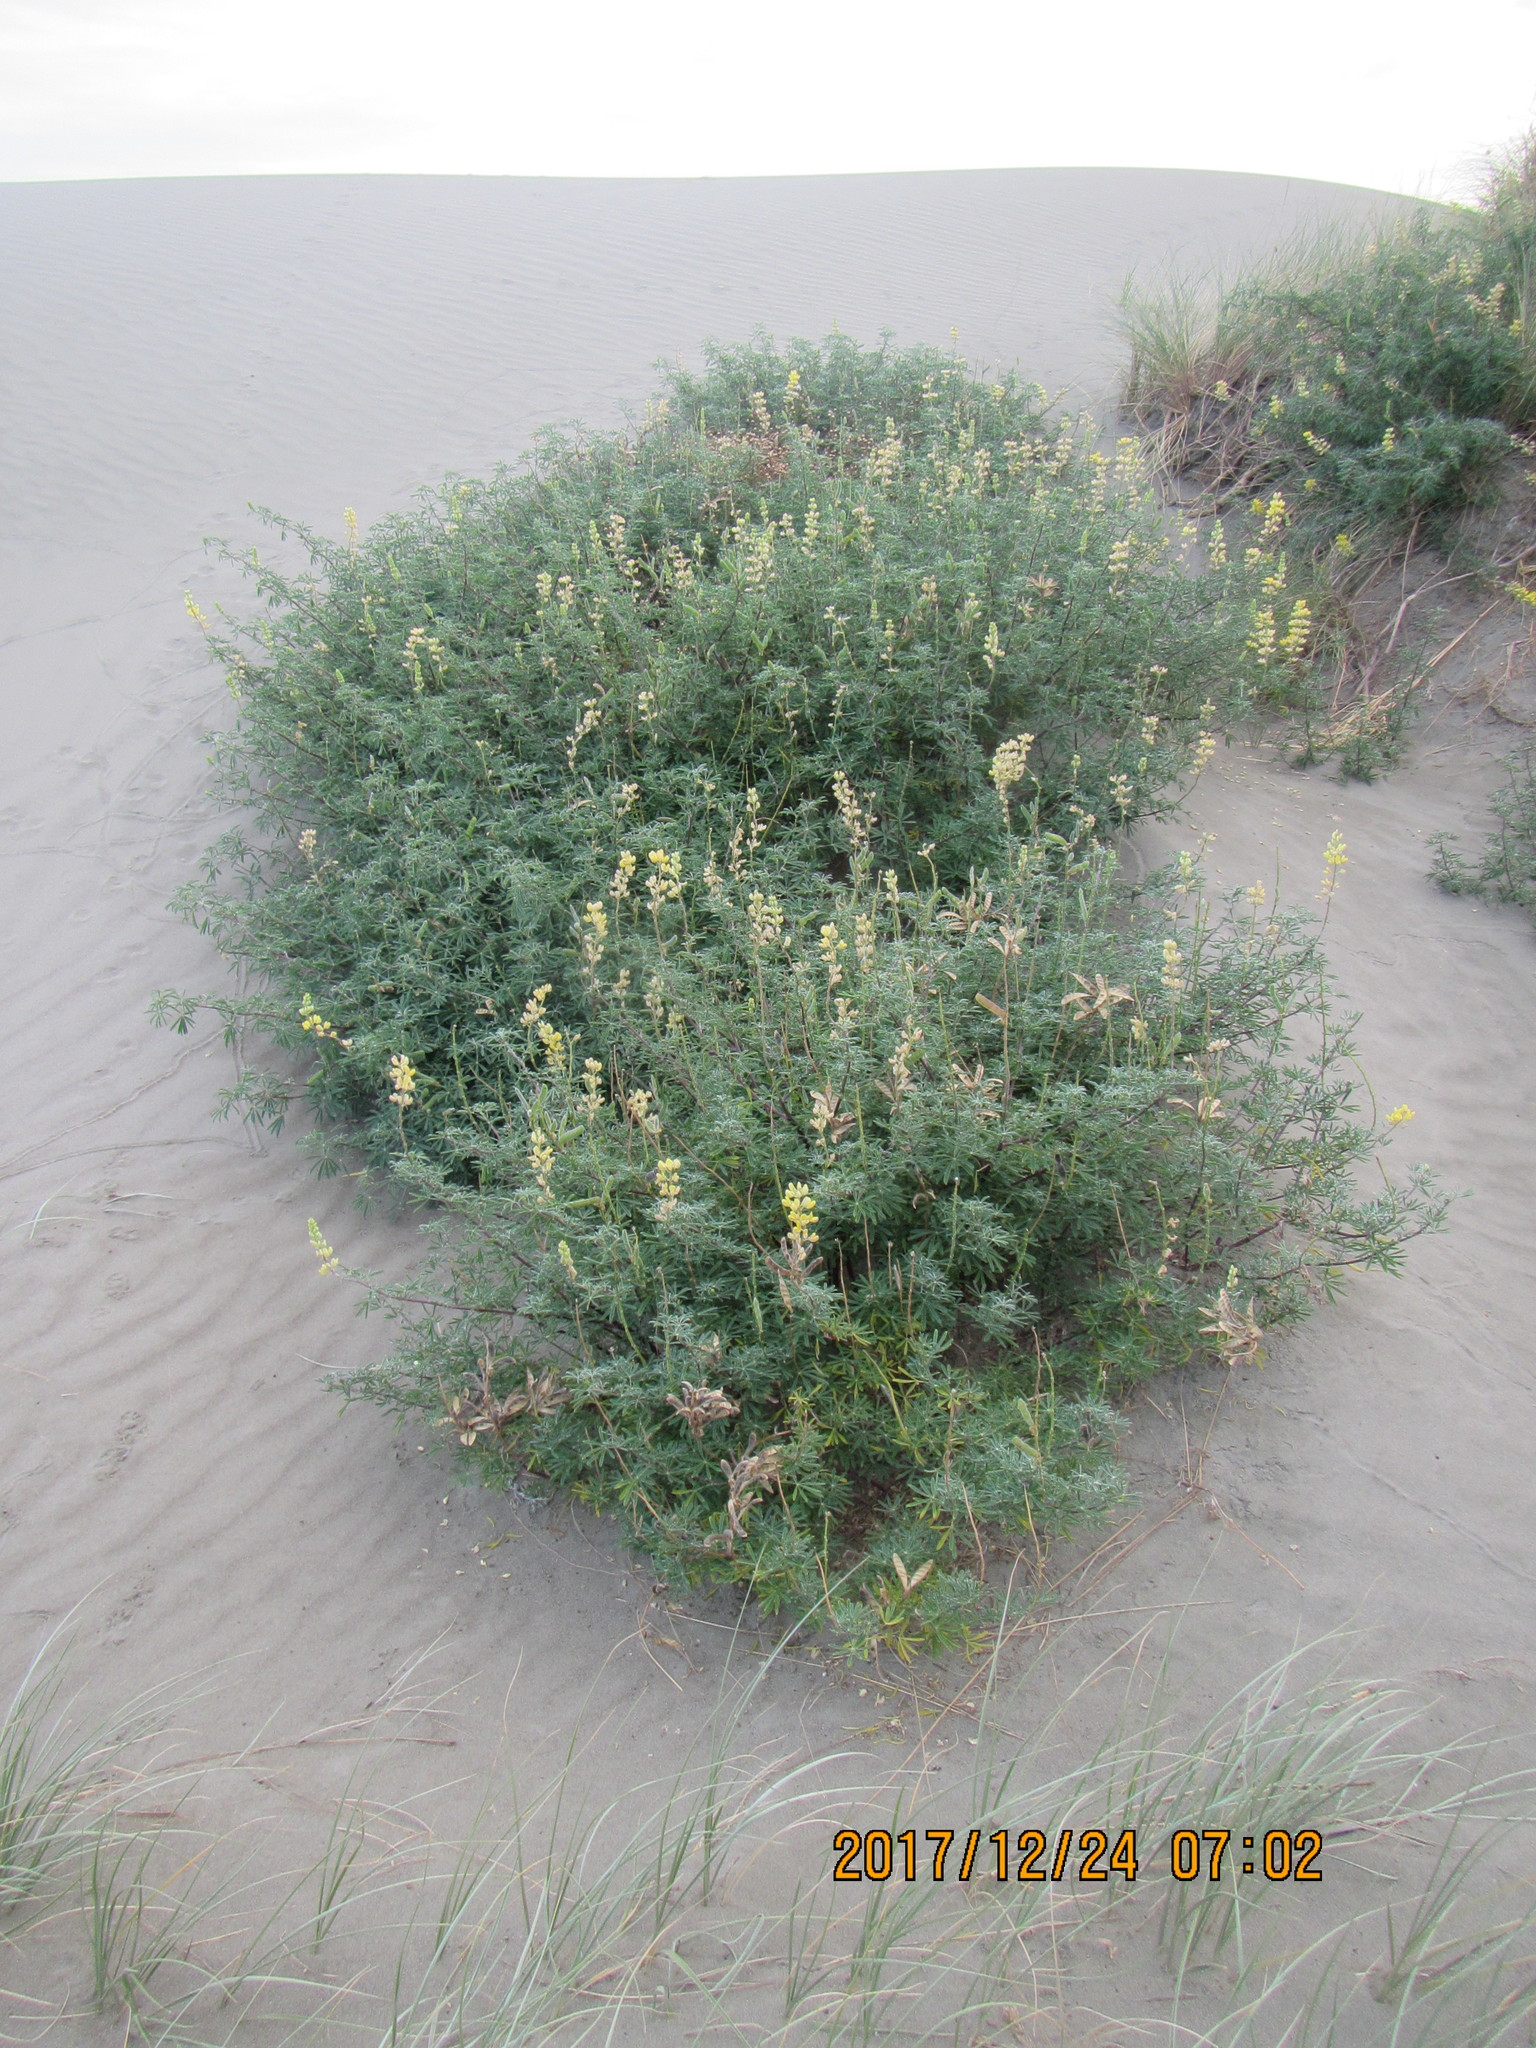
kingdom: Plantae
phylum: Tracheophyta
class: Magnoliopsida
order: Fabales
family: Fabaceae
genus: Lupinus
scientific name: Lupinus arboreus
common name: Yellow bush lupine
